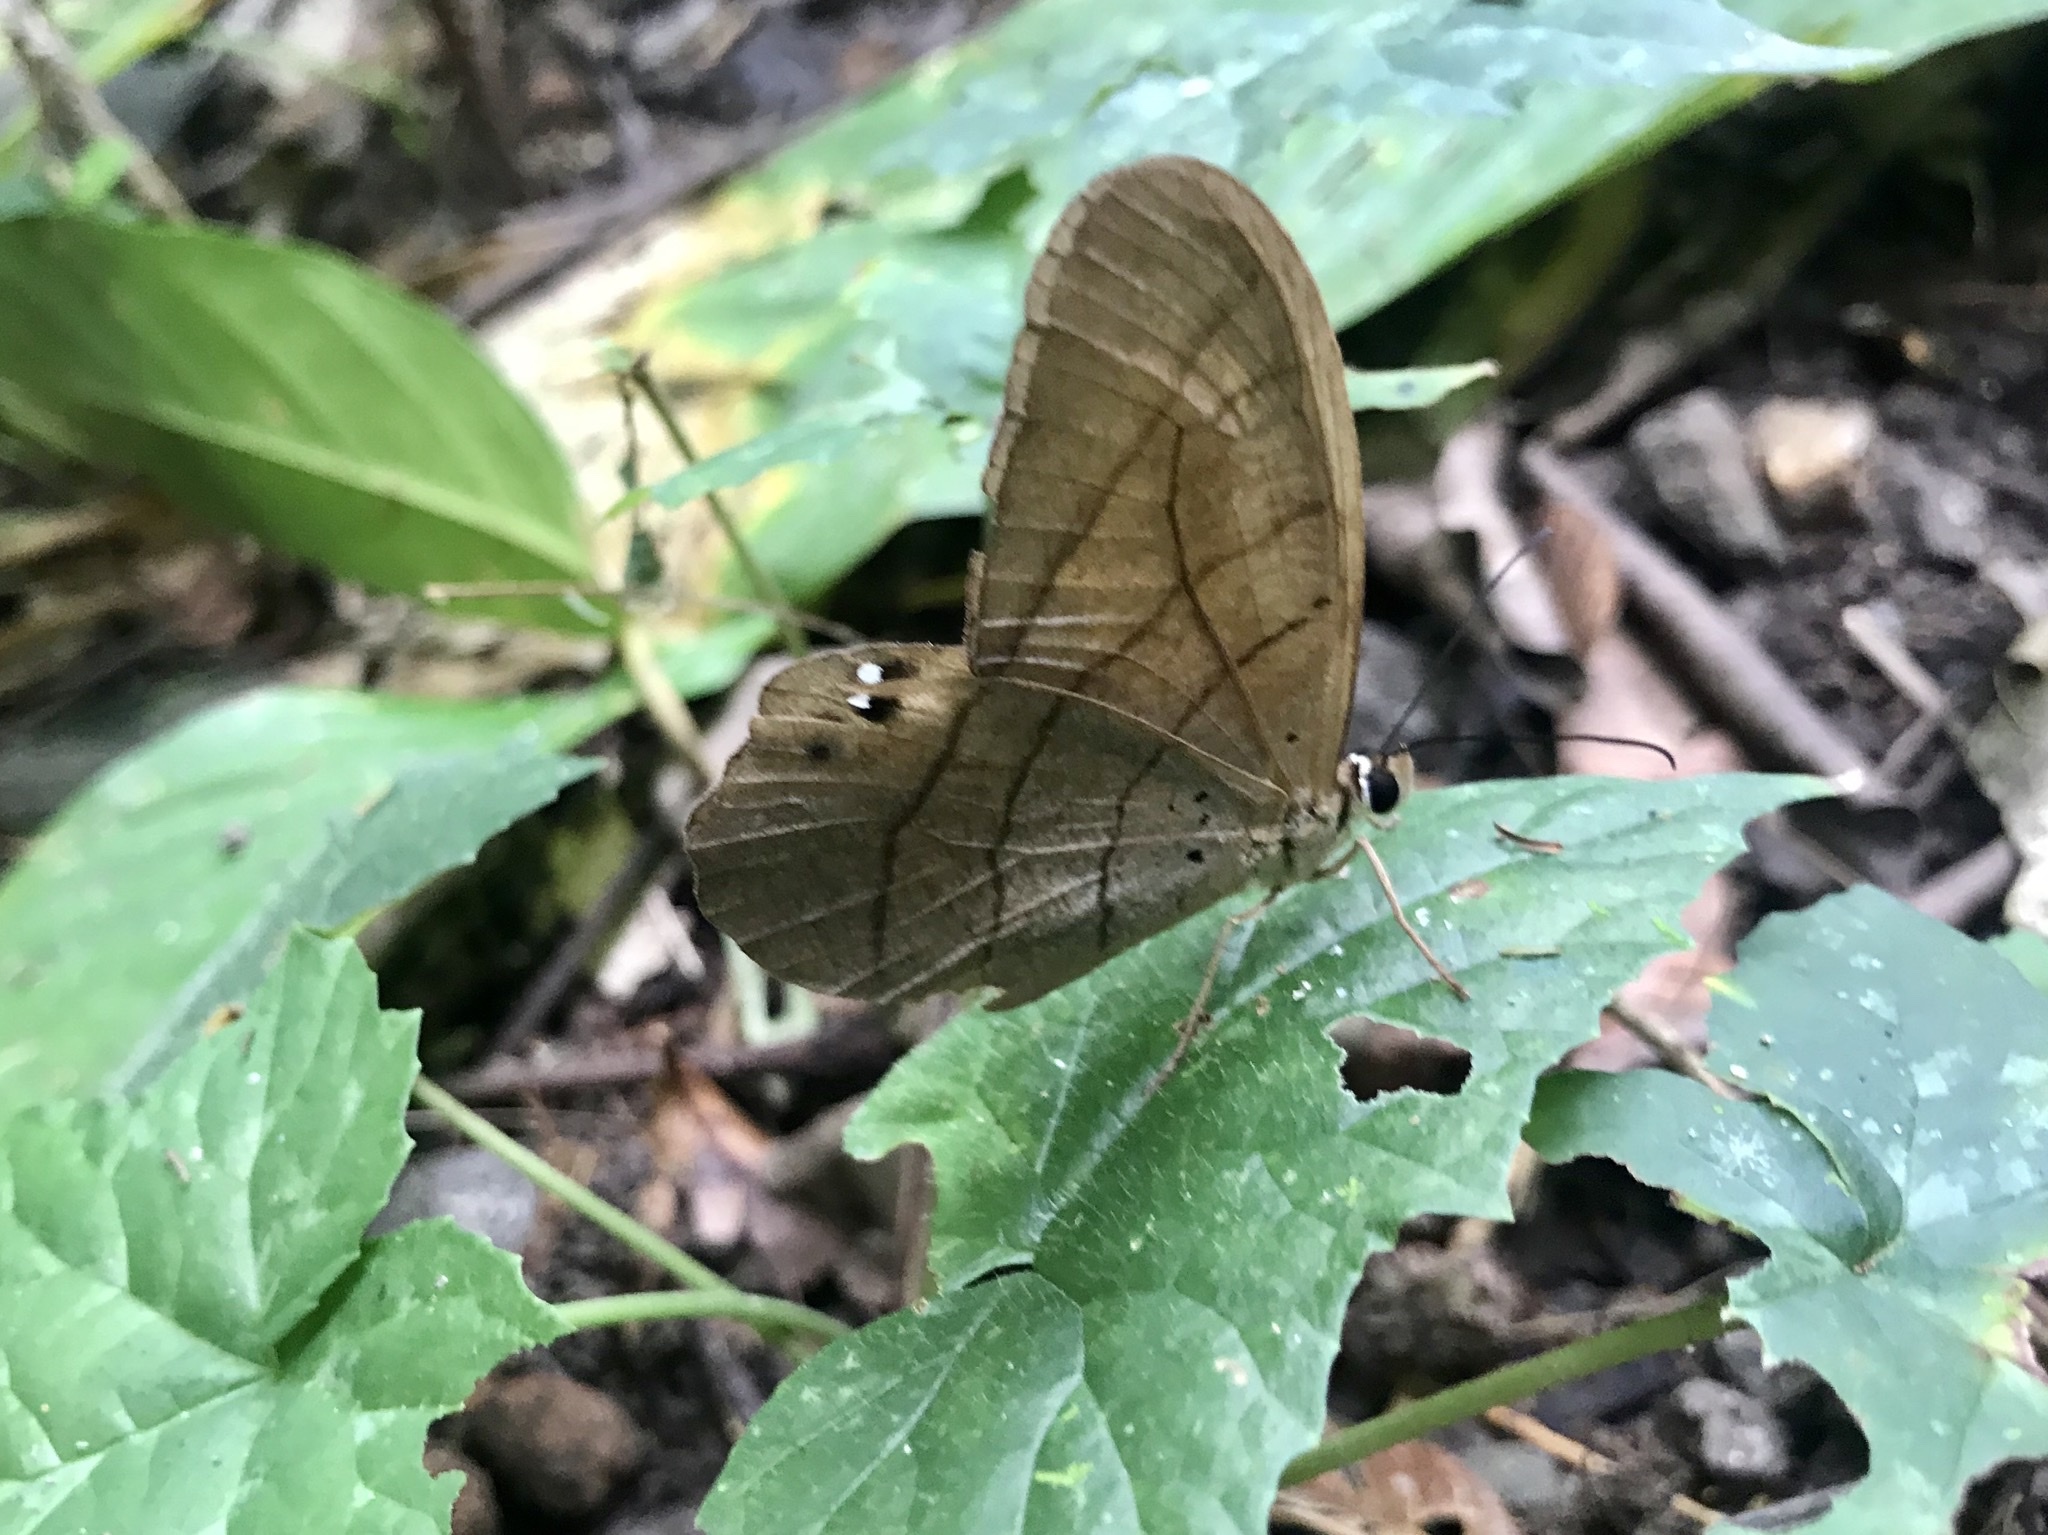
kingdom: Animalia
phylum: Arthropoda
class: Insecta
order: Lepidoptera
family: Nymphalidae
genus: Pierella
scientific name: Pierella lena
